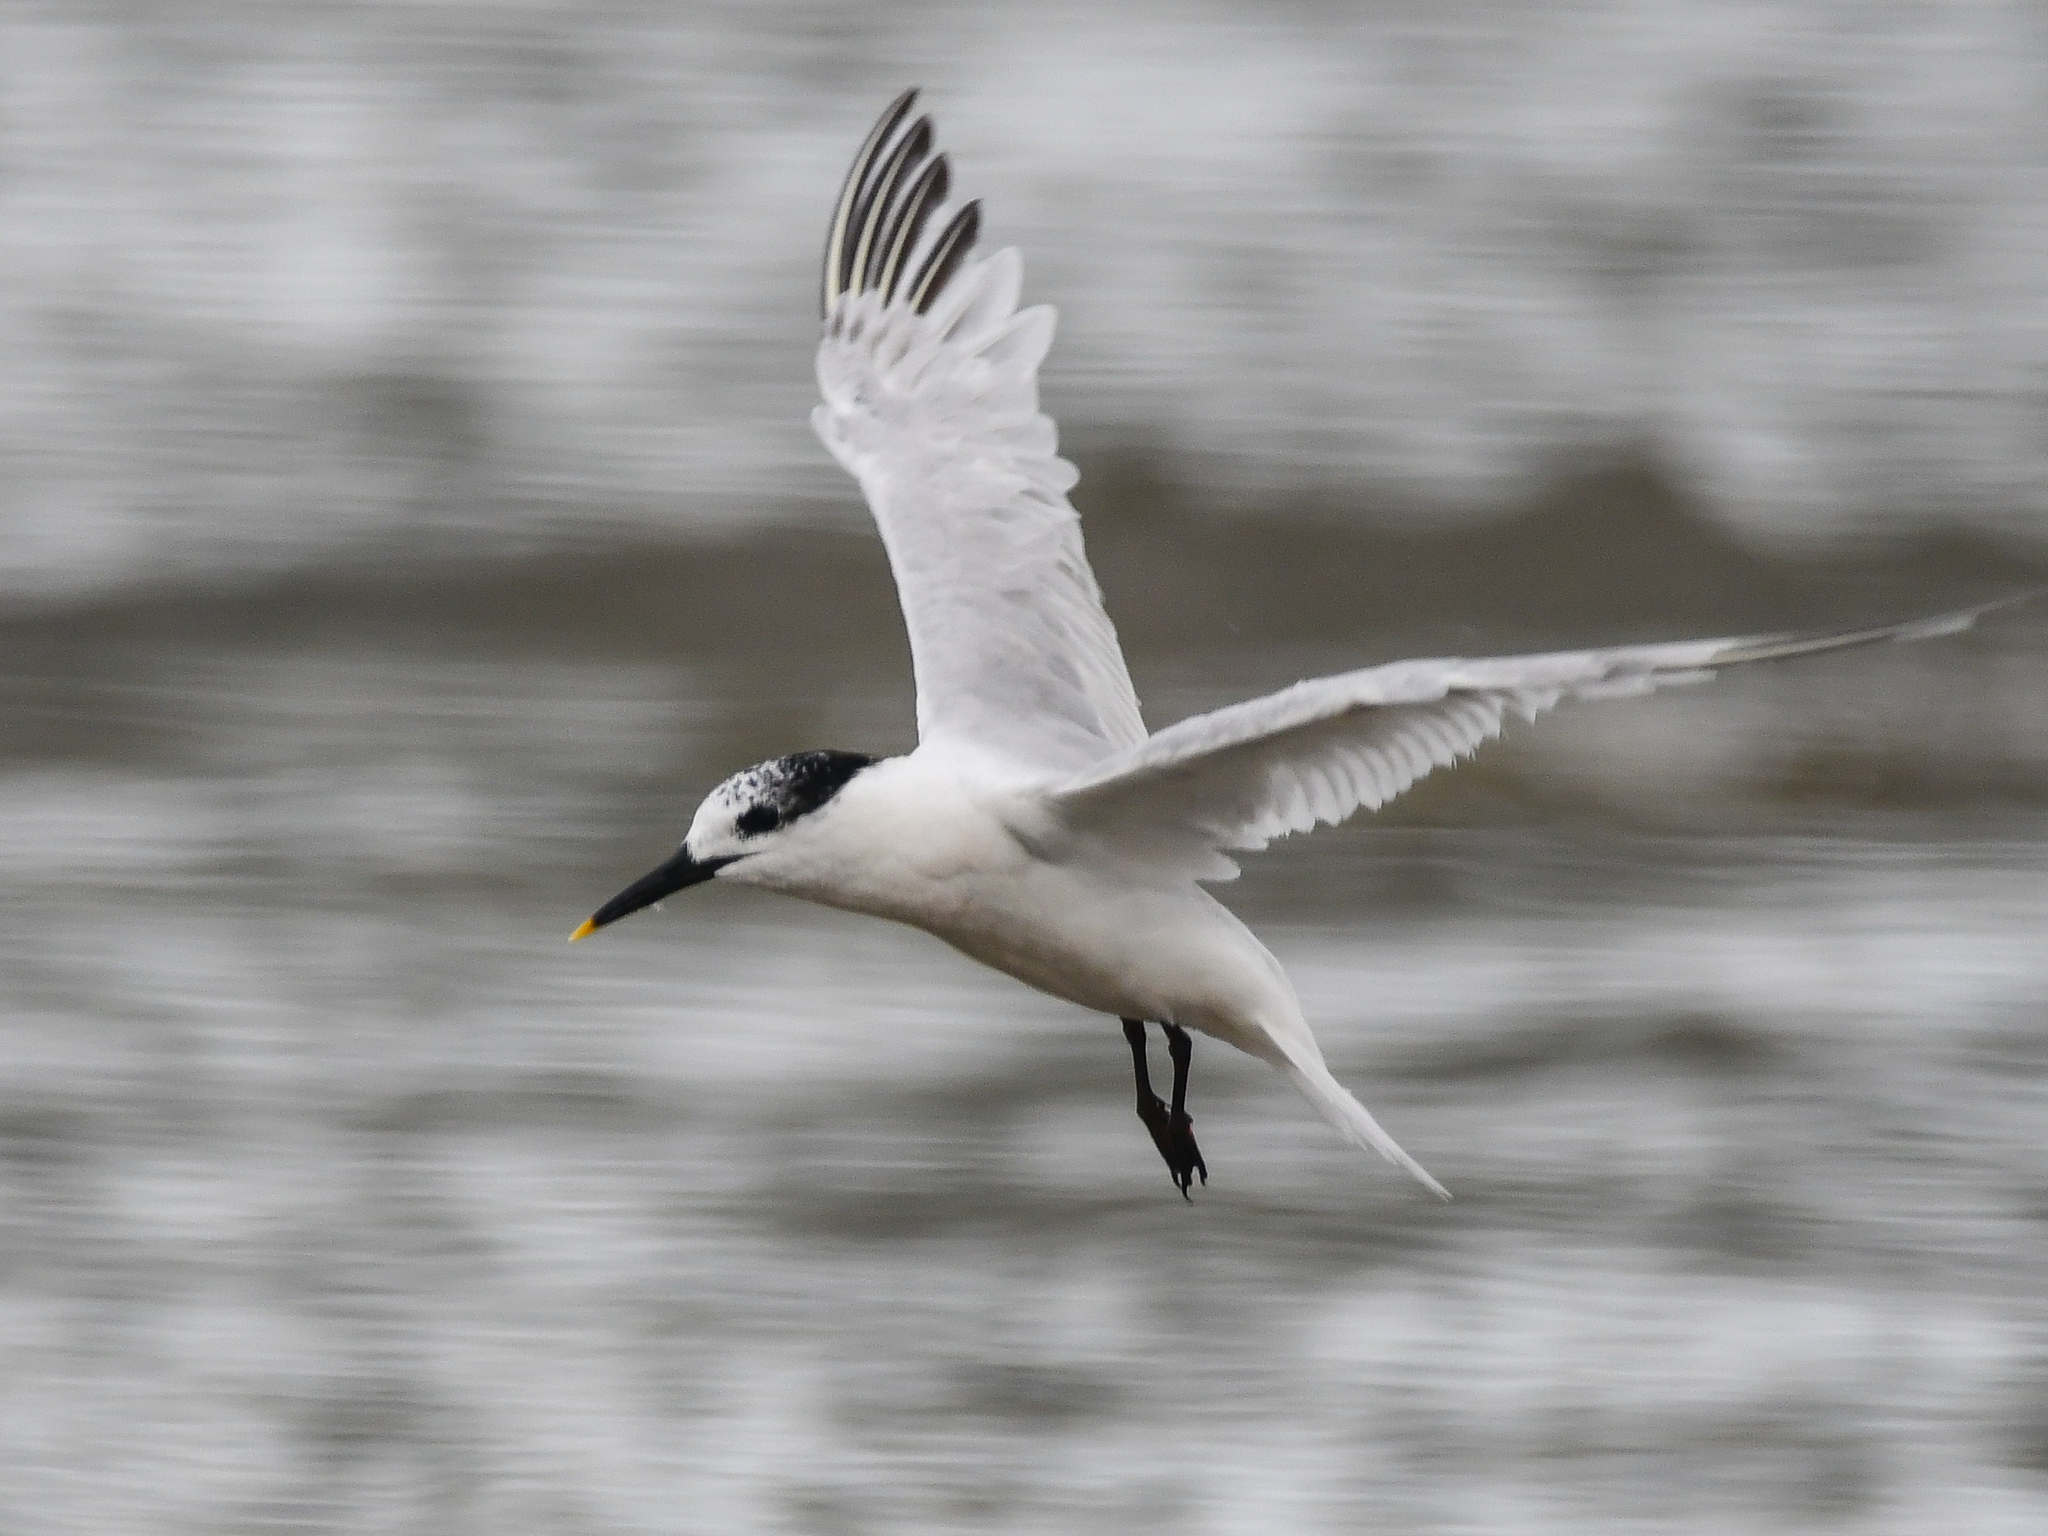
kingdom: Animalia
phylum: Chordata
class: Aves
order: Charadriiformes
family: Laridae
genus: Thalasseus
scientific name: Thalasseus sandvicensis
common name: Sandwich tern
